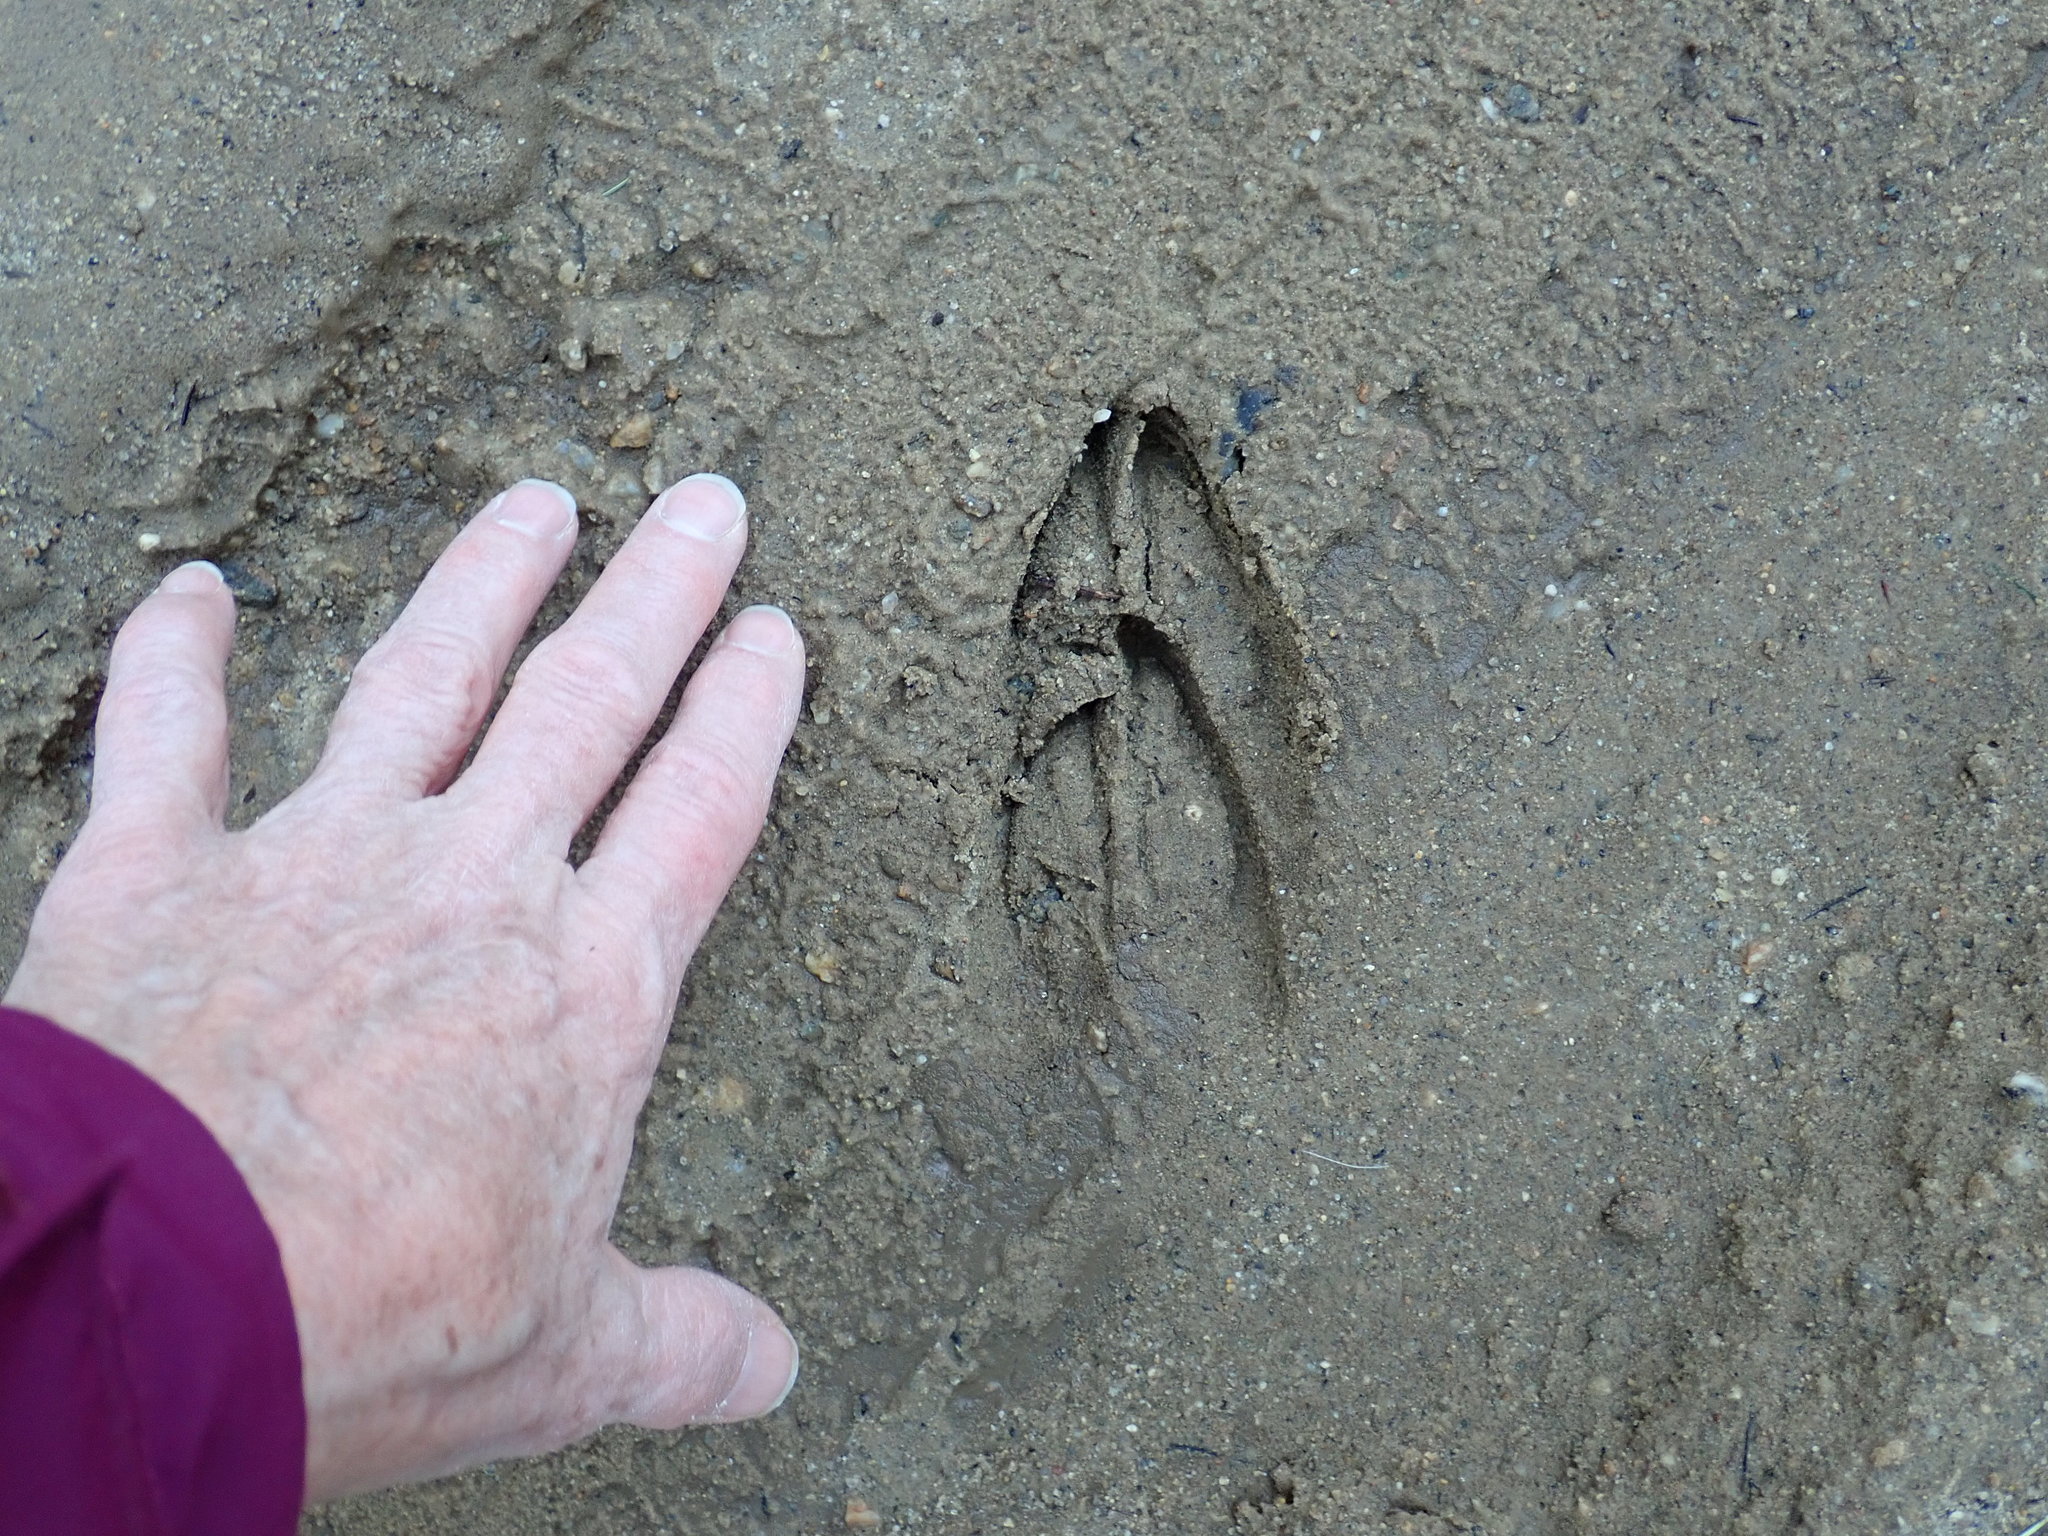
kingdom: Animalia
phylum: Chordata
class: Mammalia
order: Artiodactyla
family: Cervidae
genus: Odocoileus
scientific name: Odocoileus virginianus
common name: White-tailed deer
